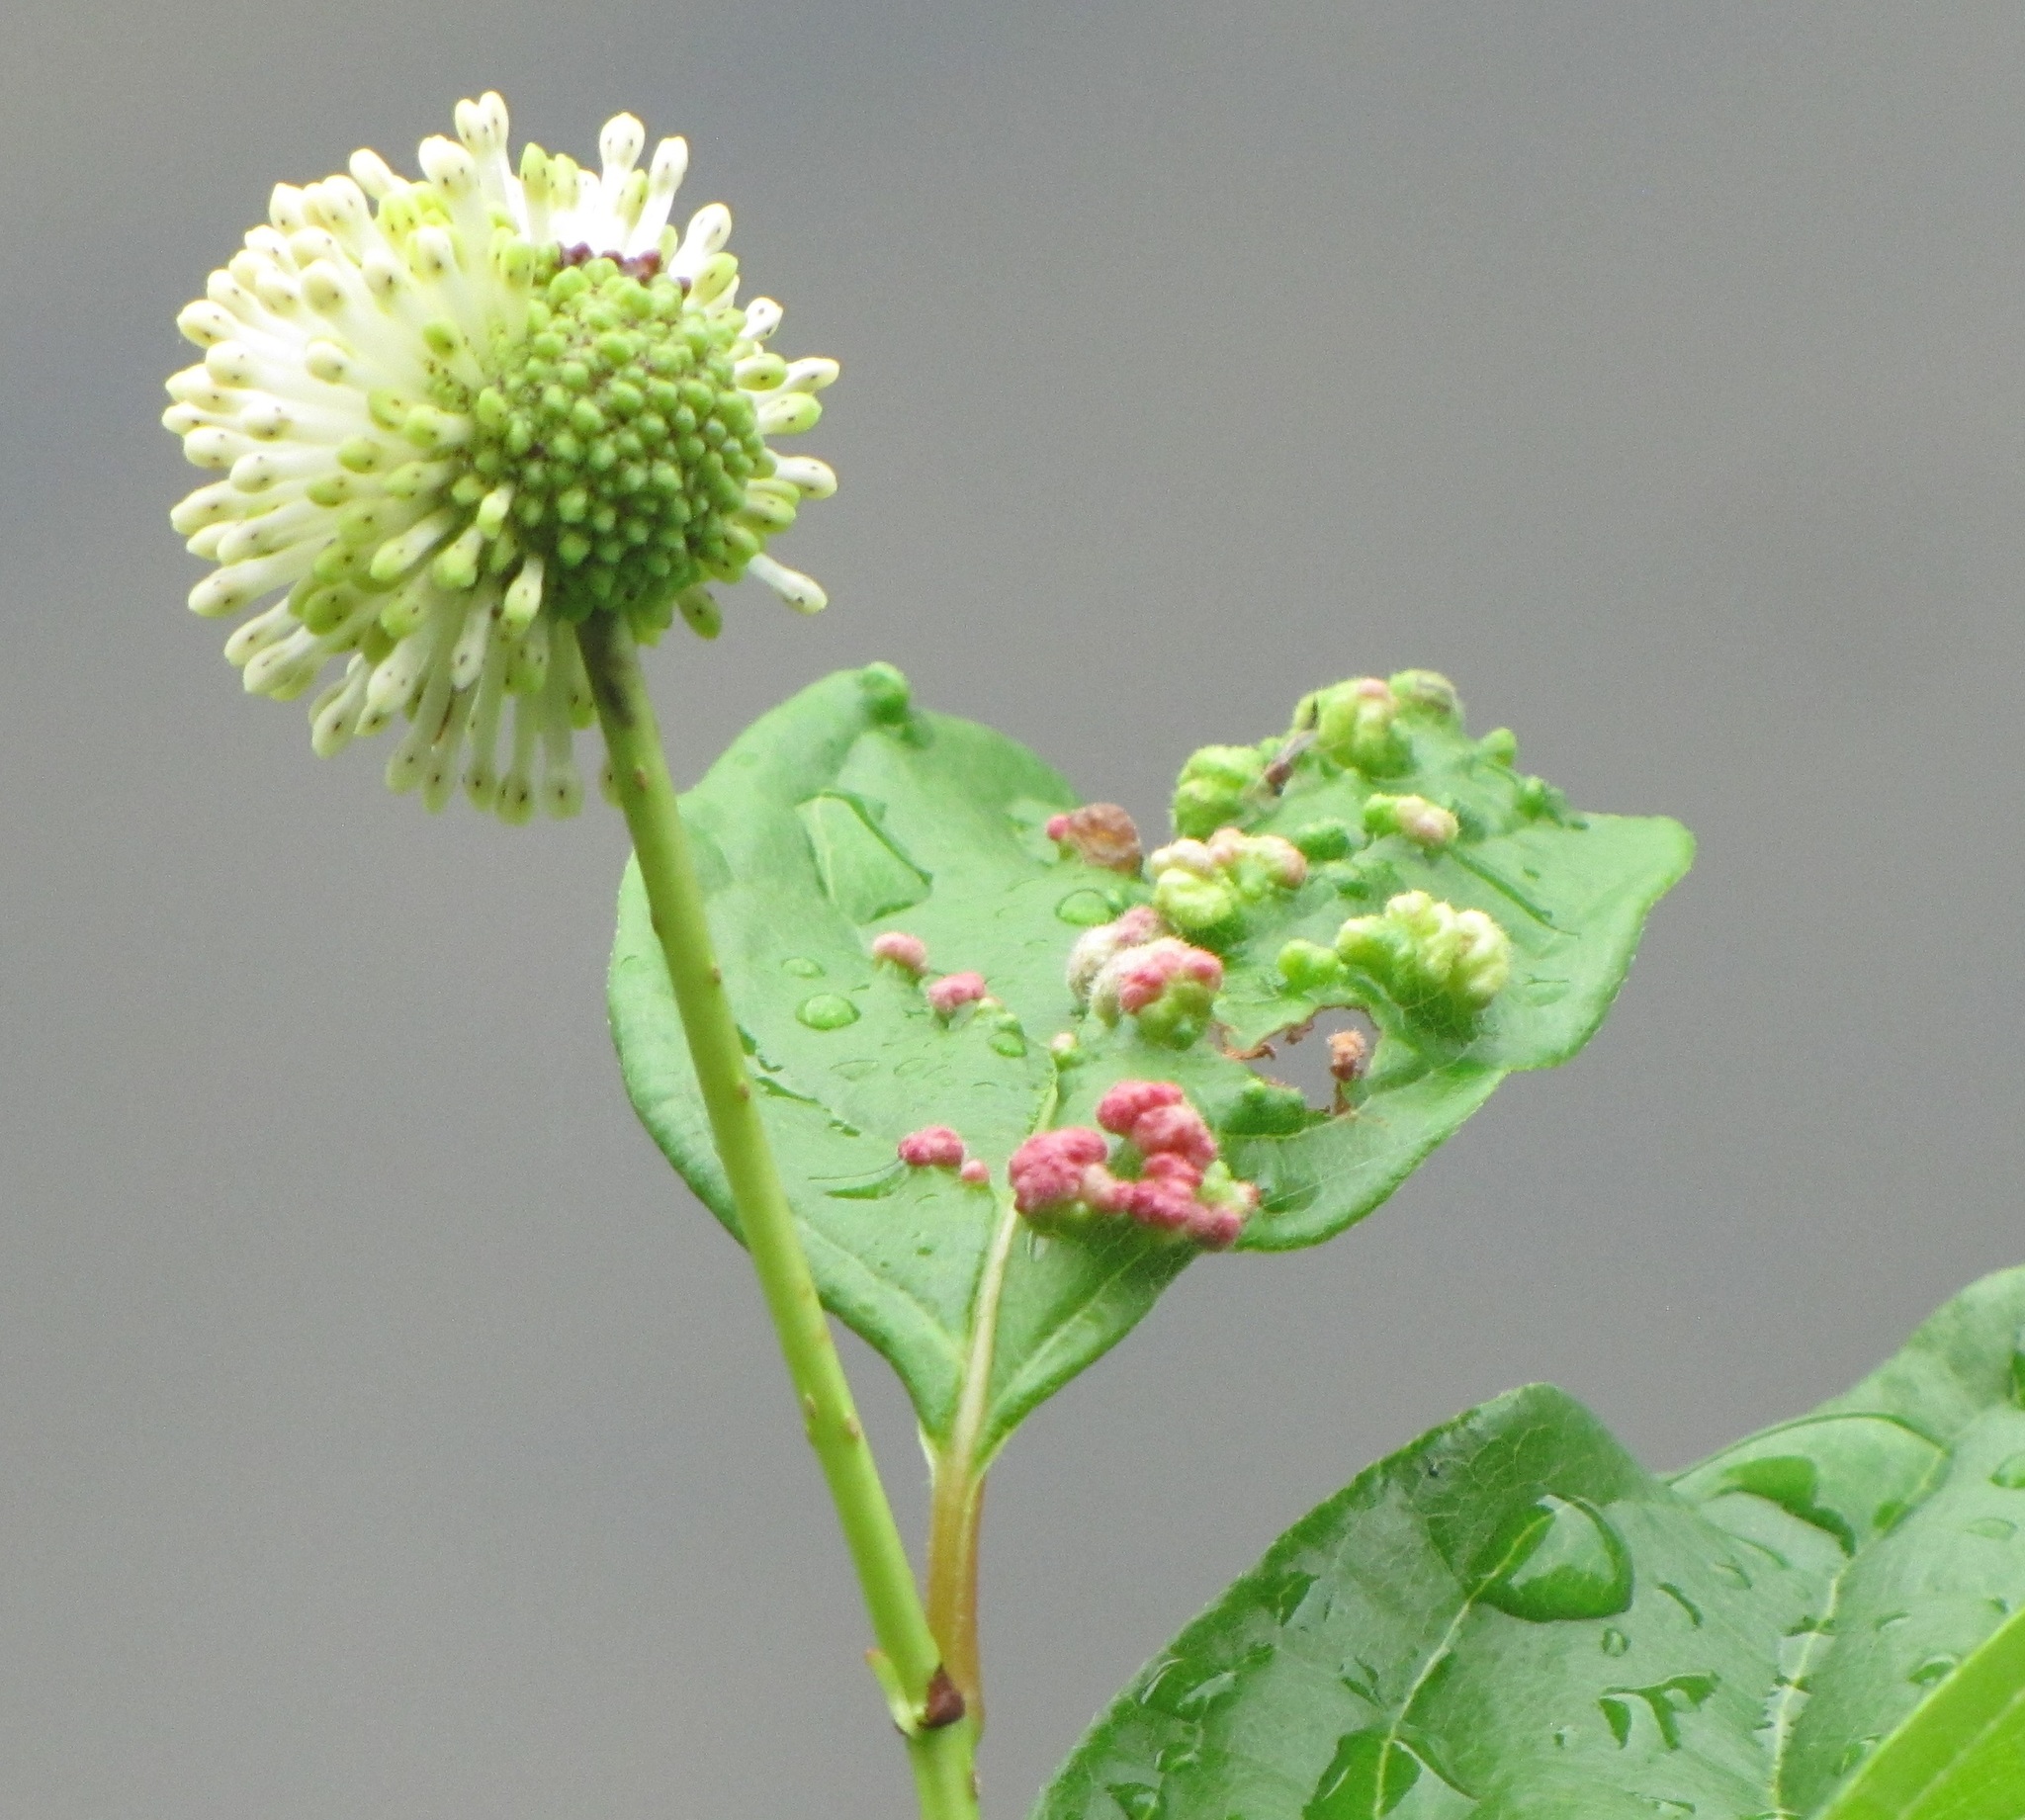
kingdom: Animalia
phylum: Arthropoda
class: Arachnida
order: Trombidiformes
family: Eriophyidae
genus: Aceria
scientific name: Aceria
